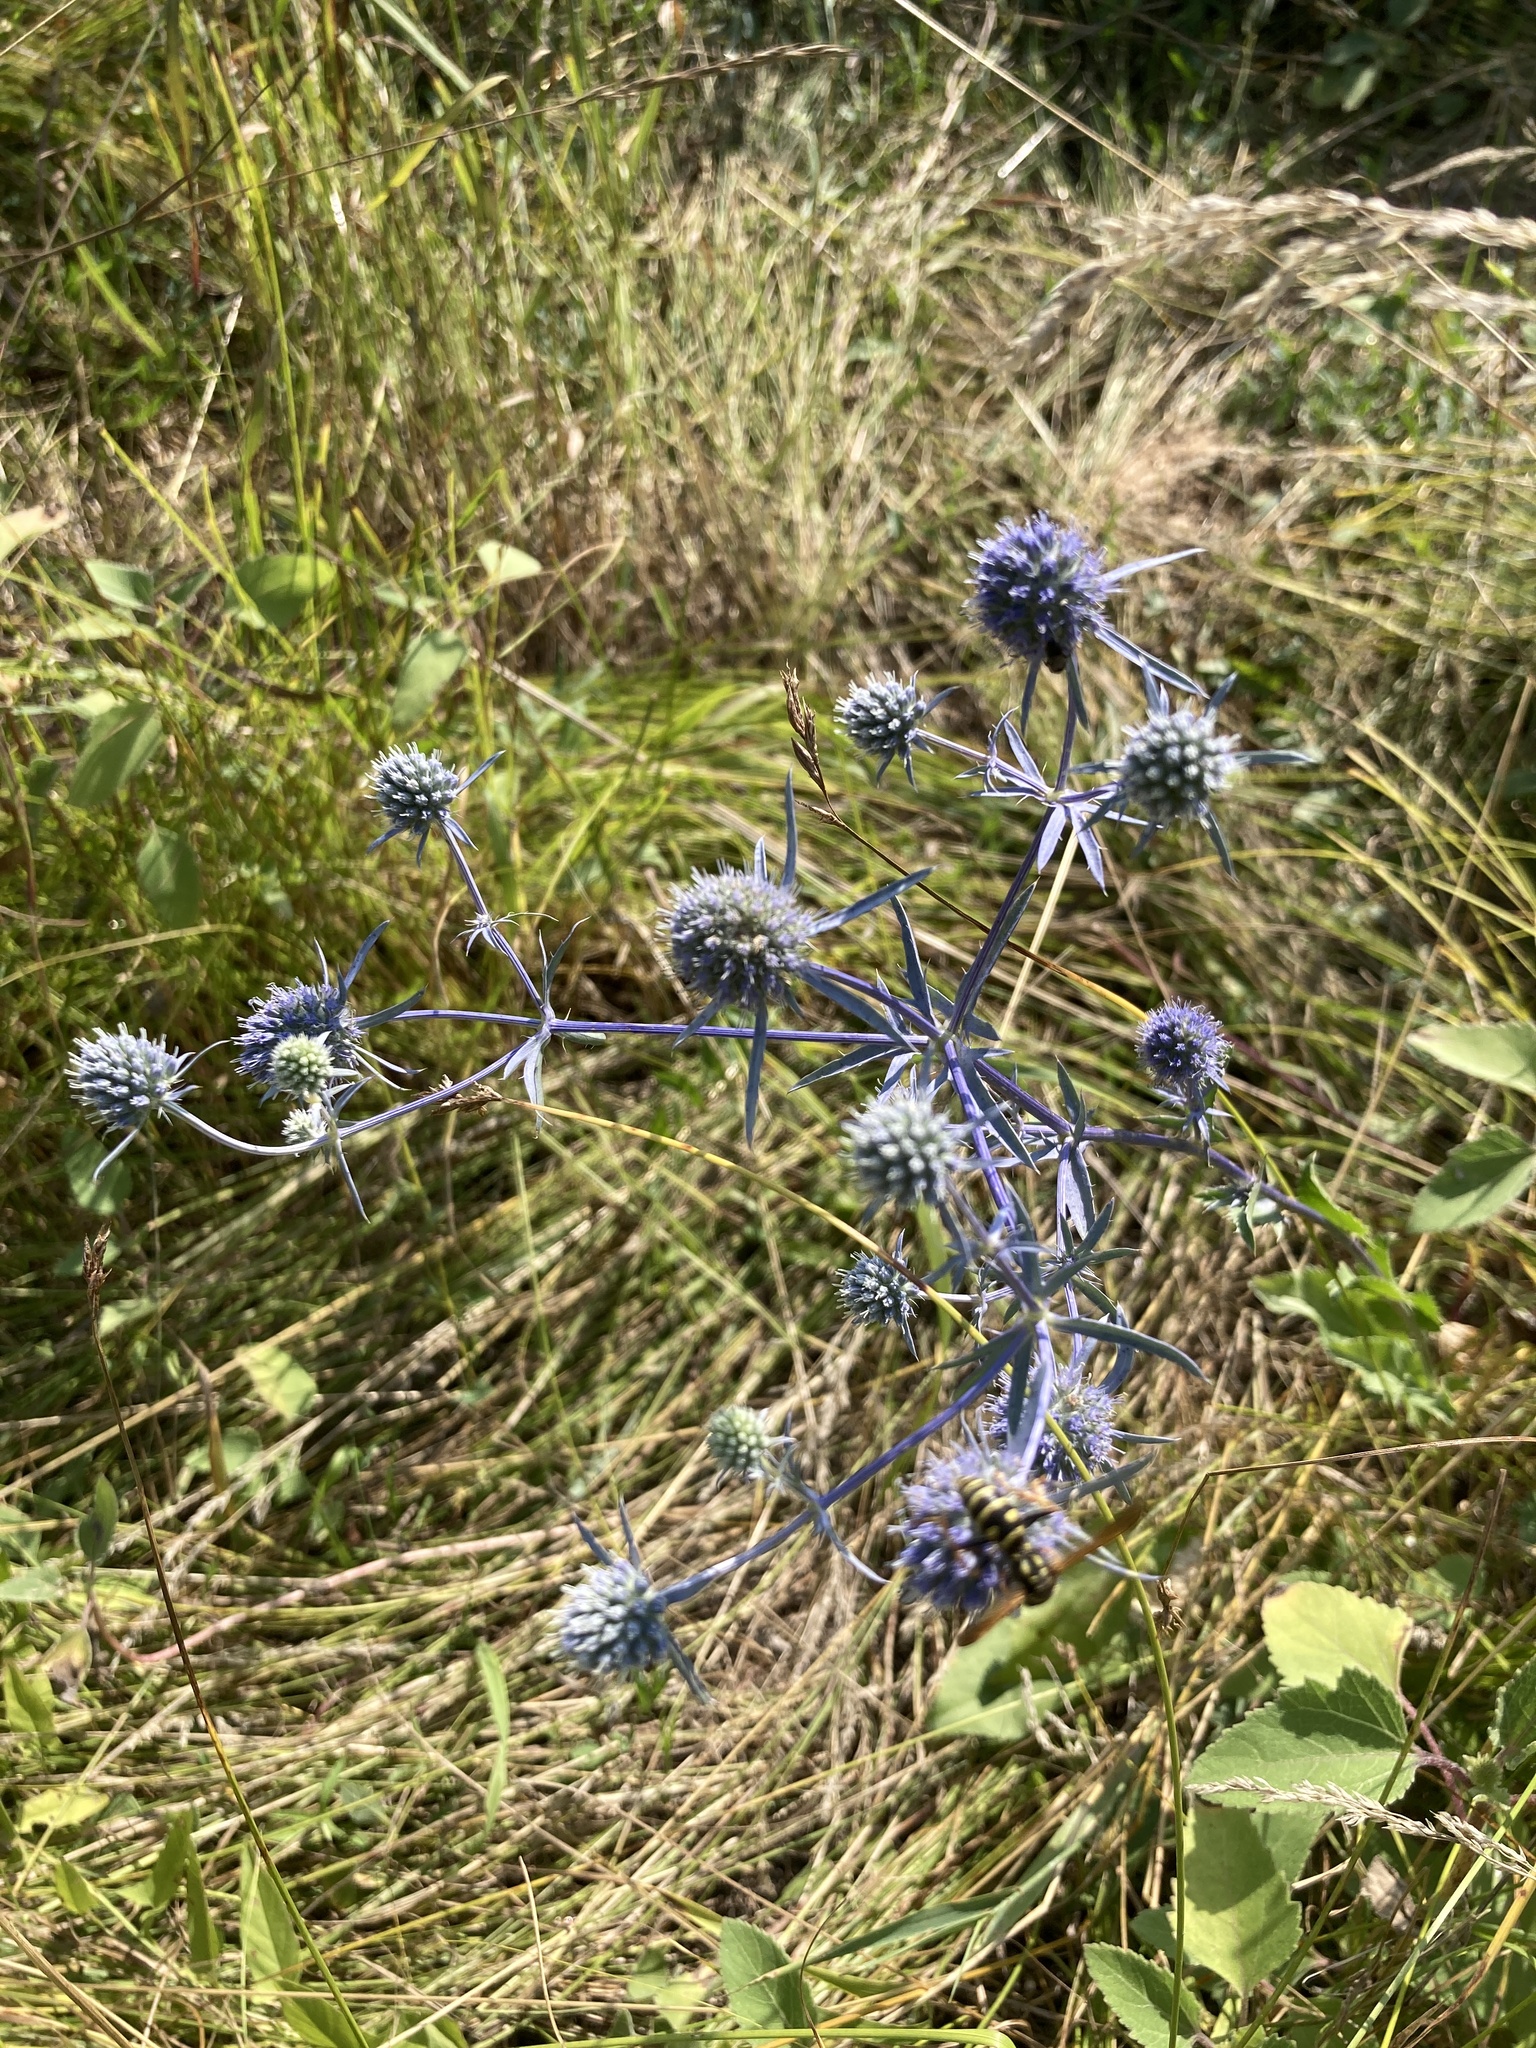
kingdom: Plantae
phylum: Tracheophyta
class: Magnoliopsida
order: Apiales
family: Apiaceae
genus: Eryngium
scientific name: Eryngium planum
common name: Blue eryngo
